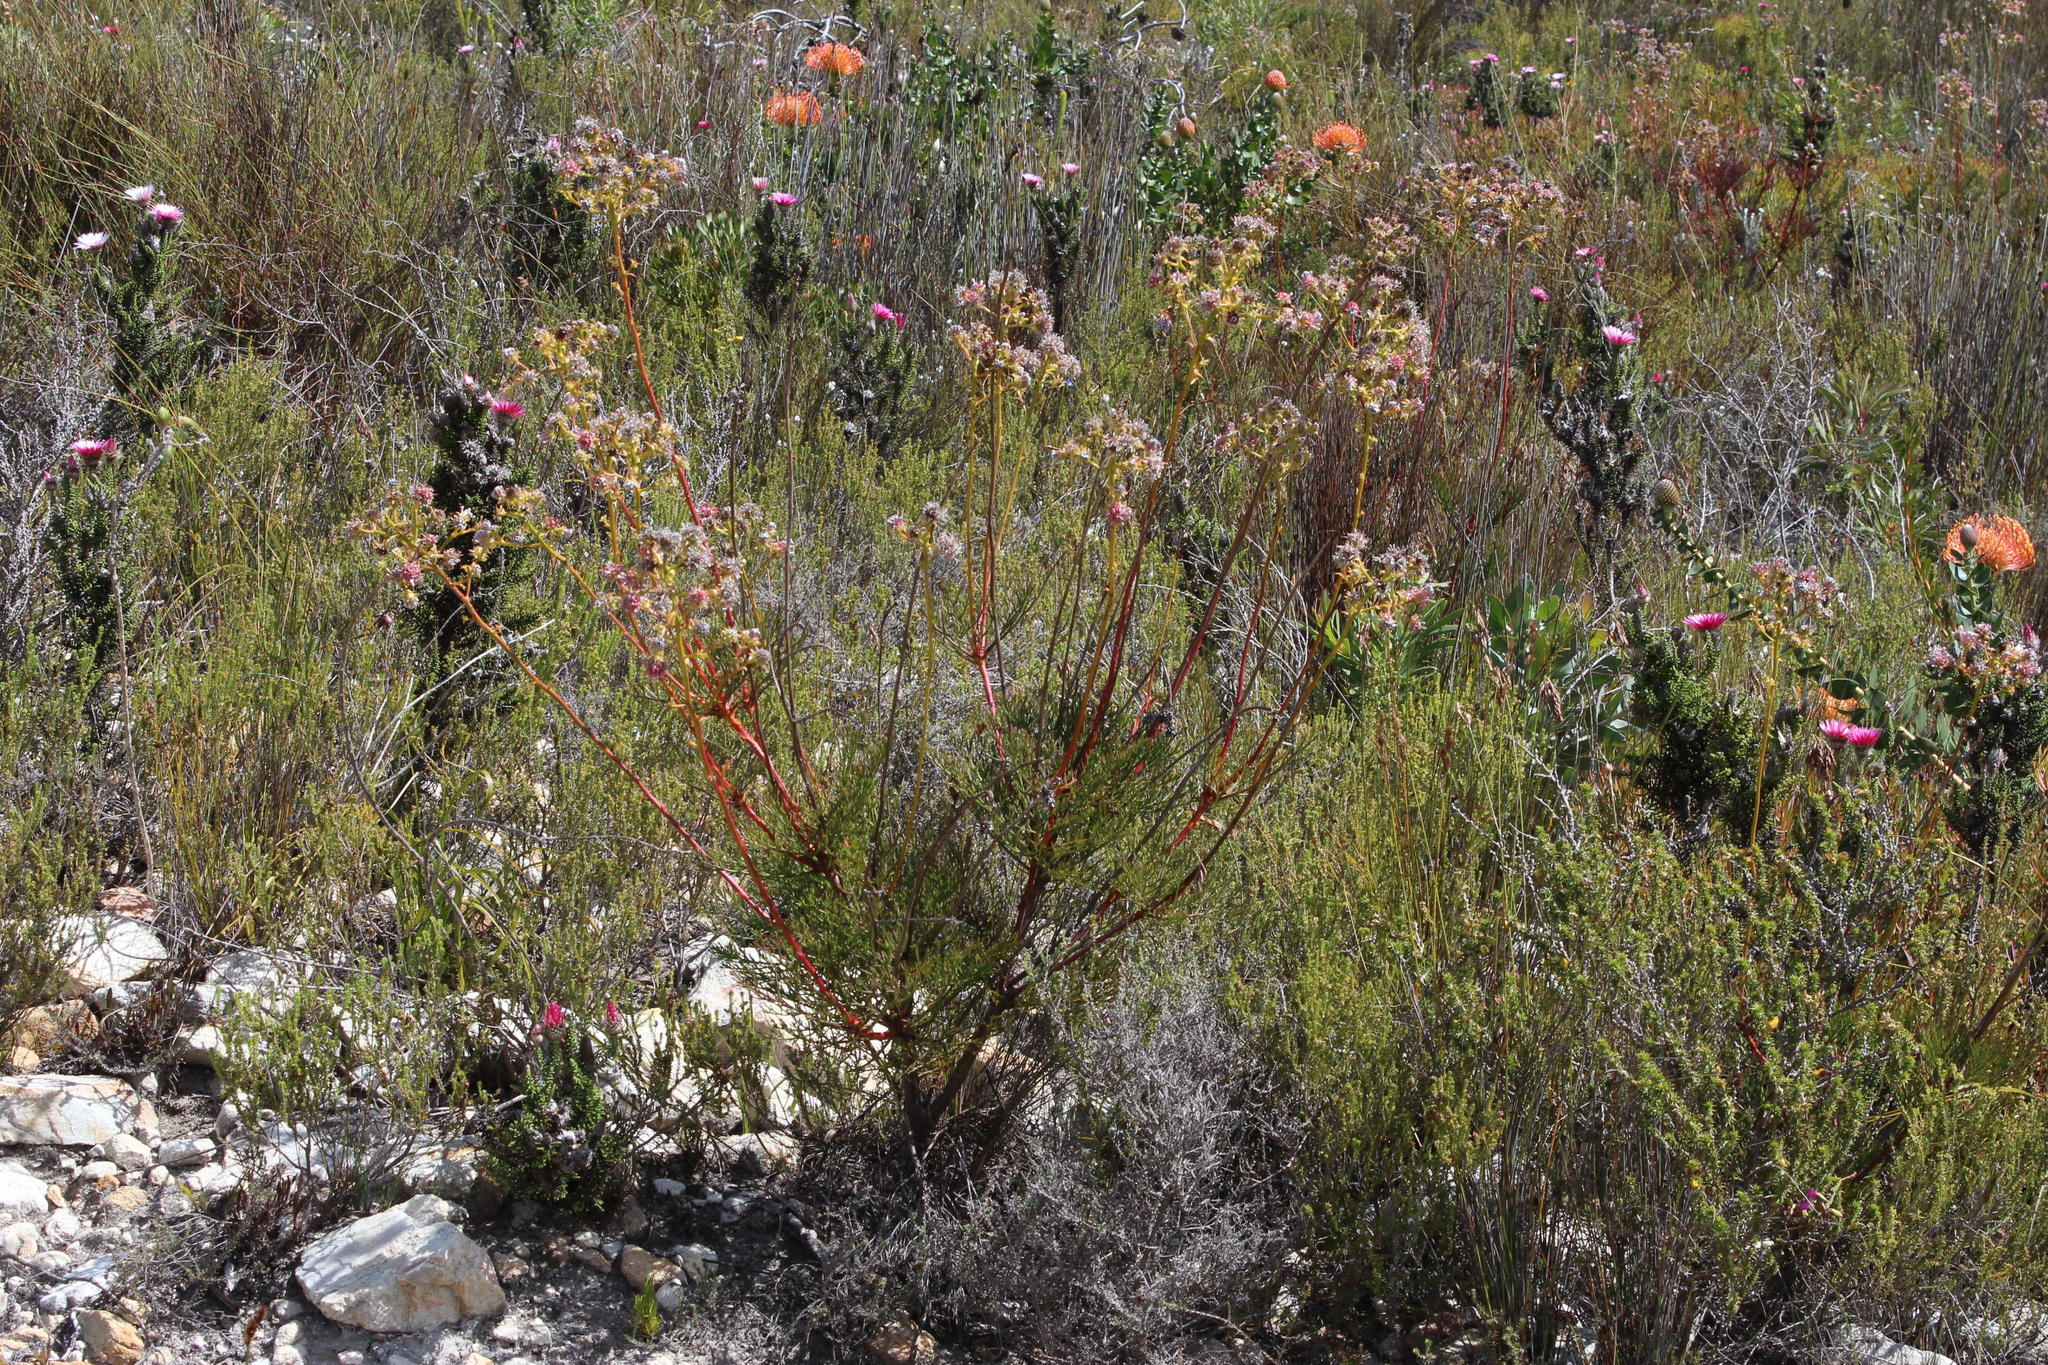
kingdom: Plantae
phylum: Tracheophyta
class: Magnoliopsida
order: Proteales
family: Proteaceae
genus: Serruria
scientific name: Serruria elongata
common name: Long-stalk spiderhead
